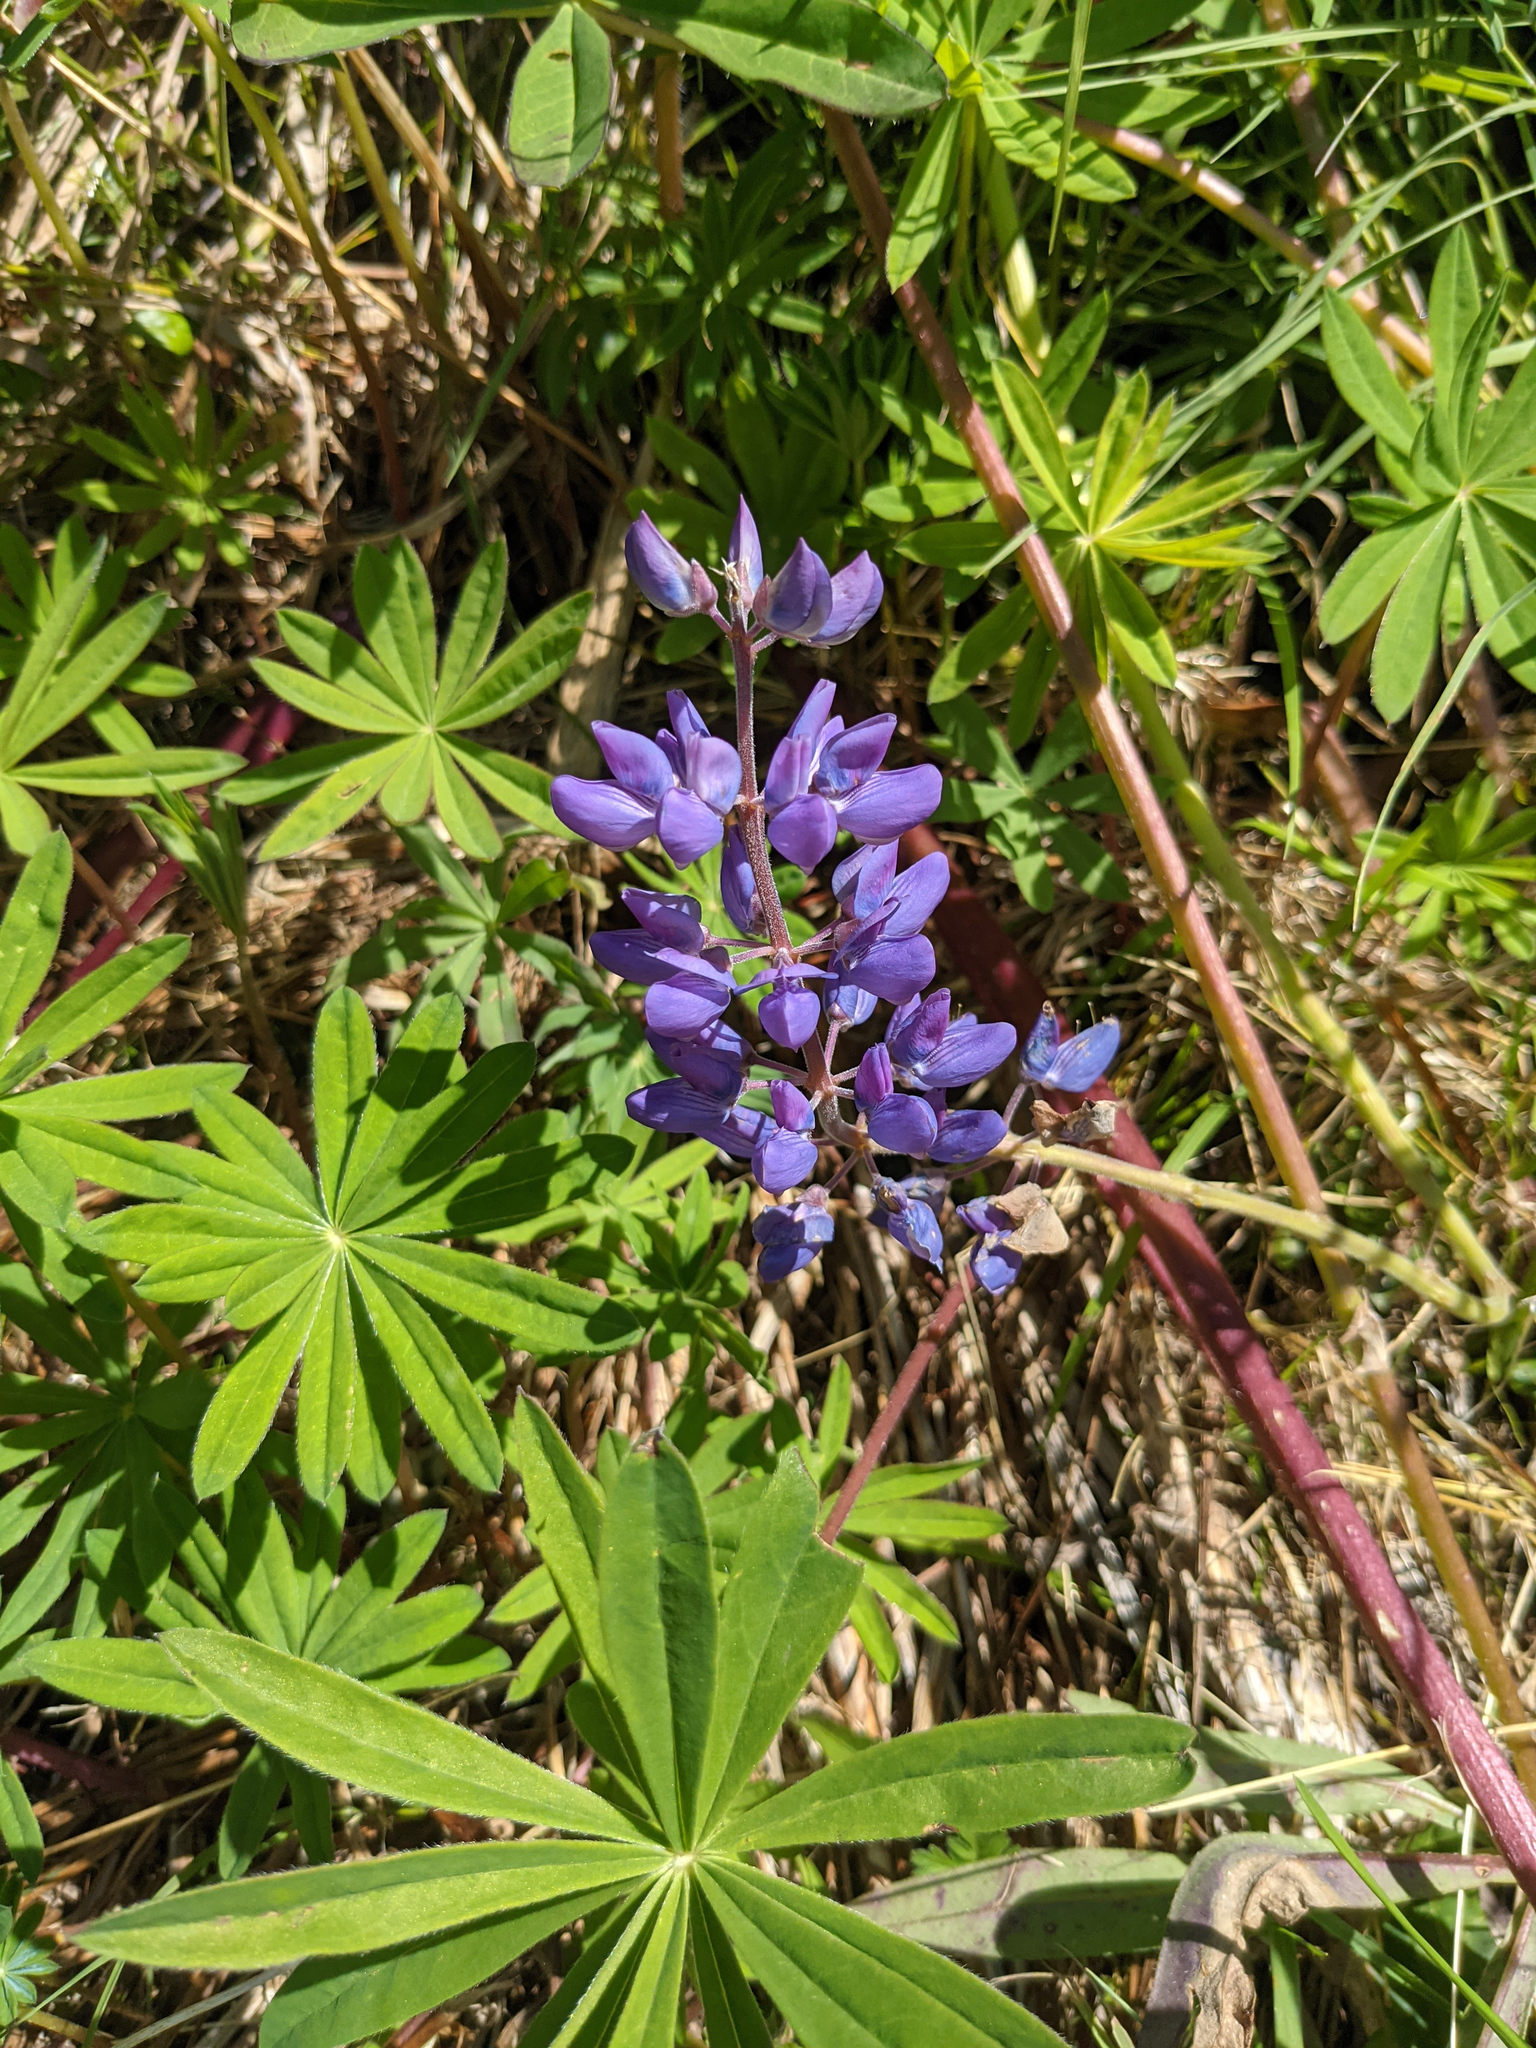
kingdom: Plantae
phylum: Tracheophyta
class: Magnoliopsida
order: Fabales
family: Fabaceae
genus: Lupinus
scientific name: Lupinus polyphyllus
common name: Garden lupin
